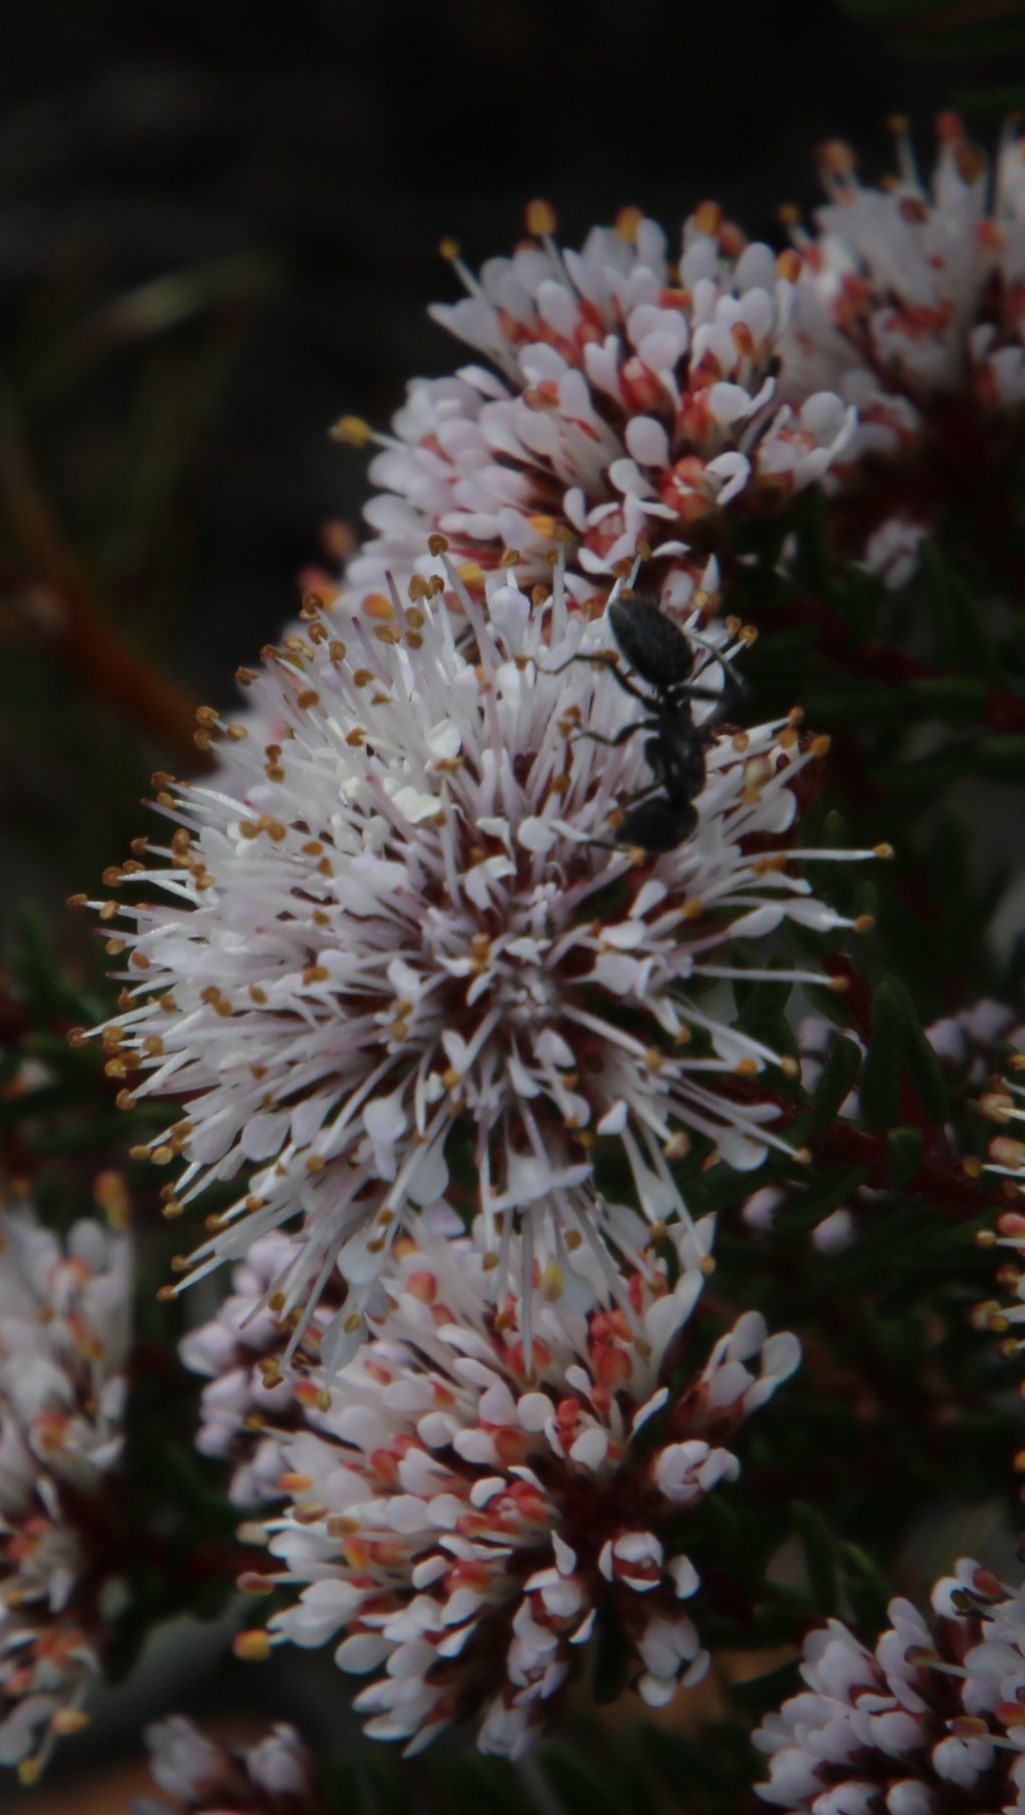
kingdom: Animalia
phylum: Arthropoda
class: Insecta
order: Hymenoptera
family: Formicidae
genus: Camponotus
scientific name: Camponotus niveosetosus
